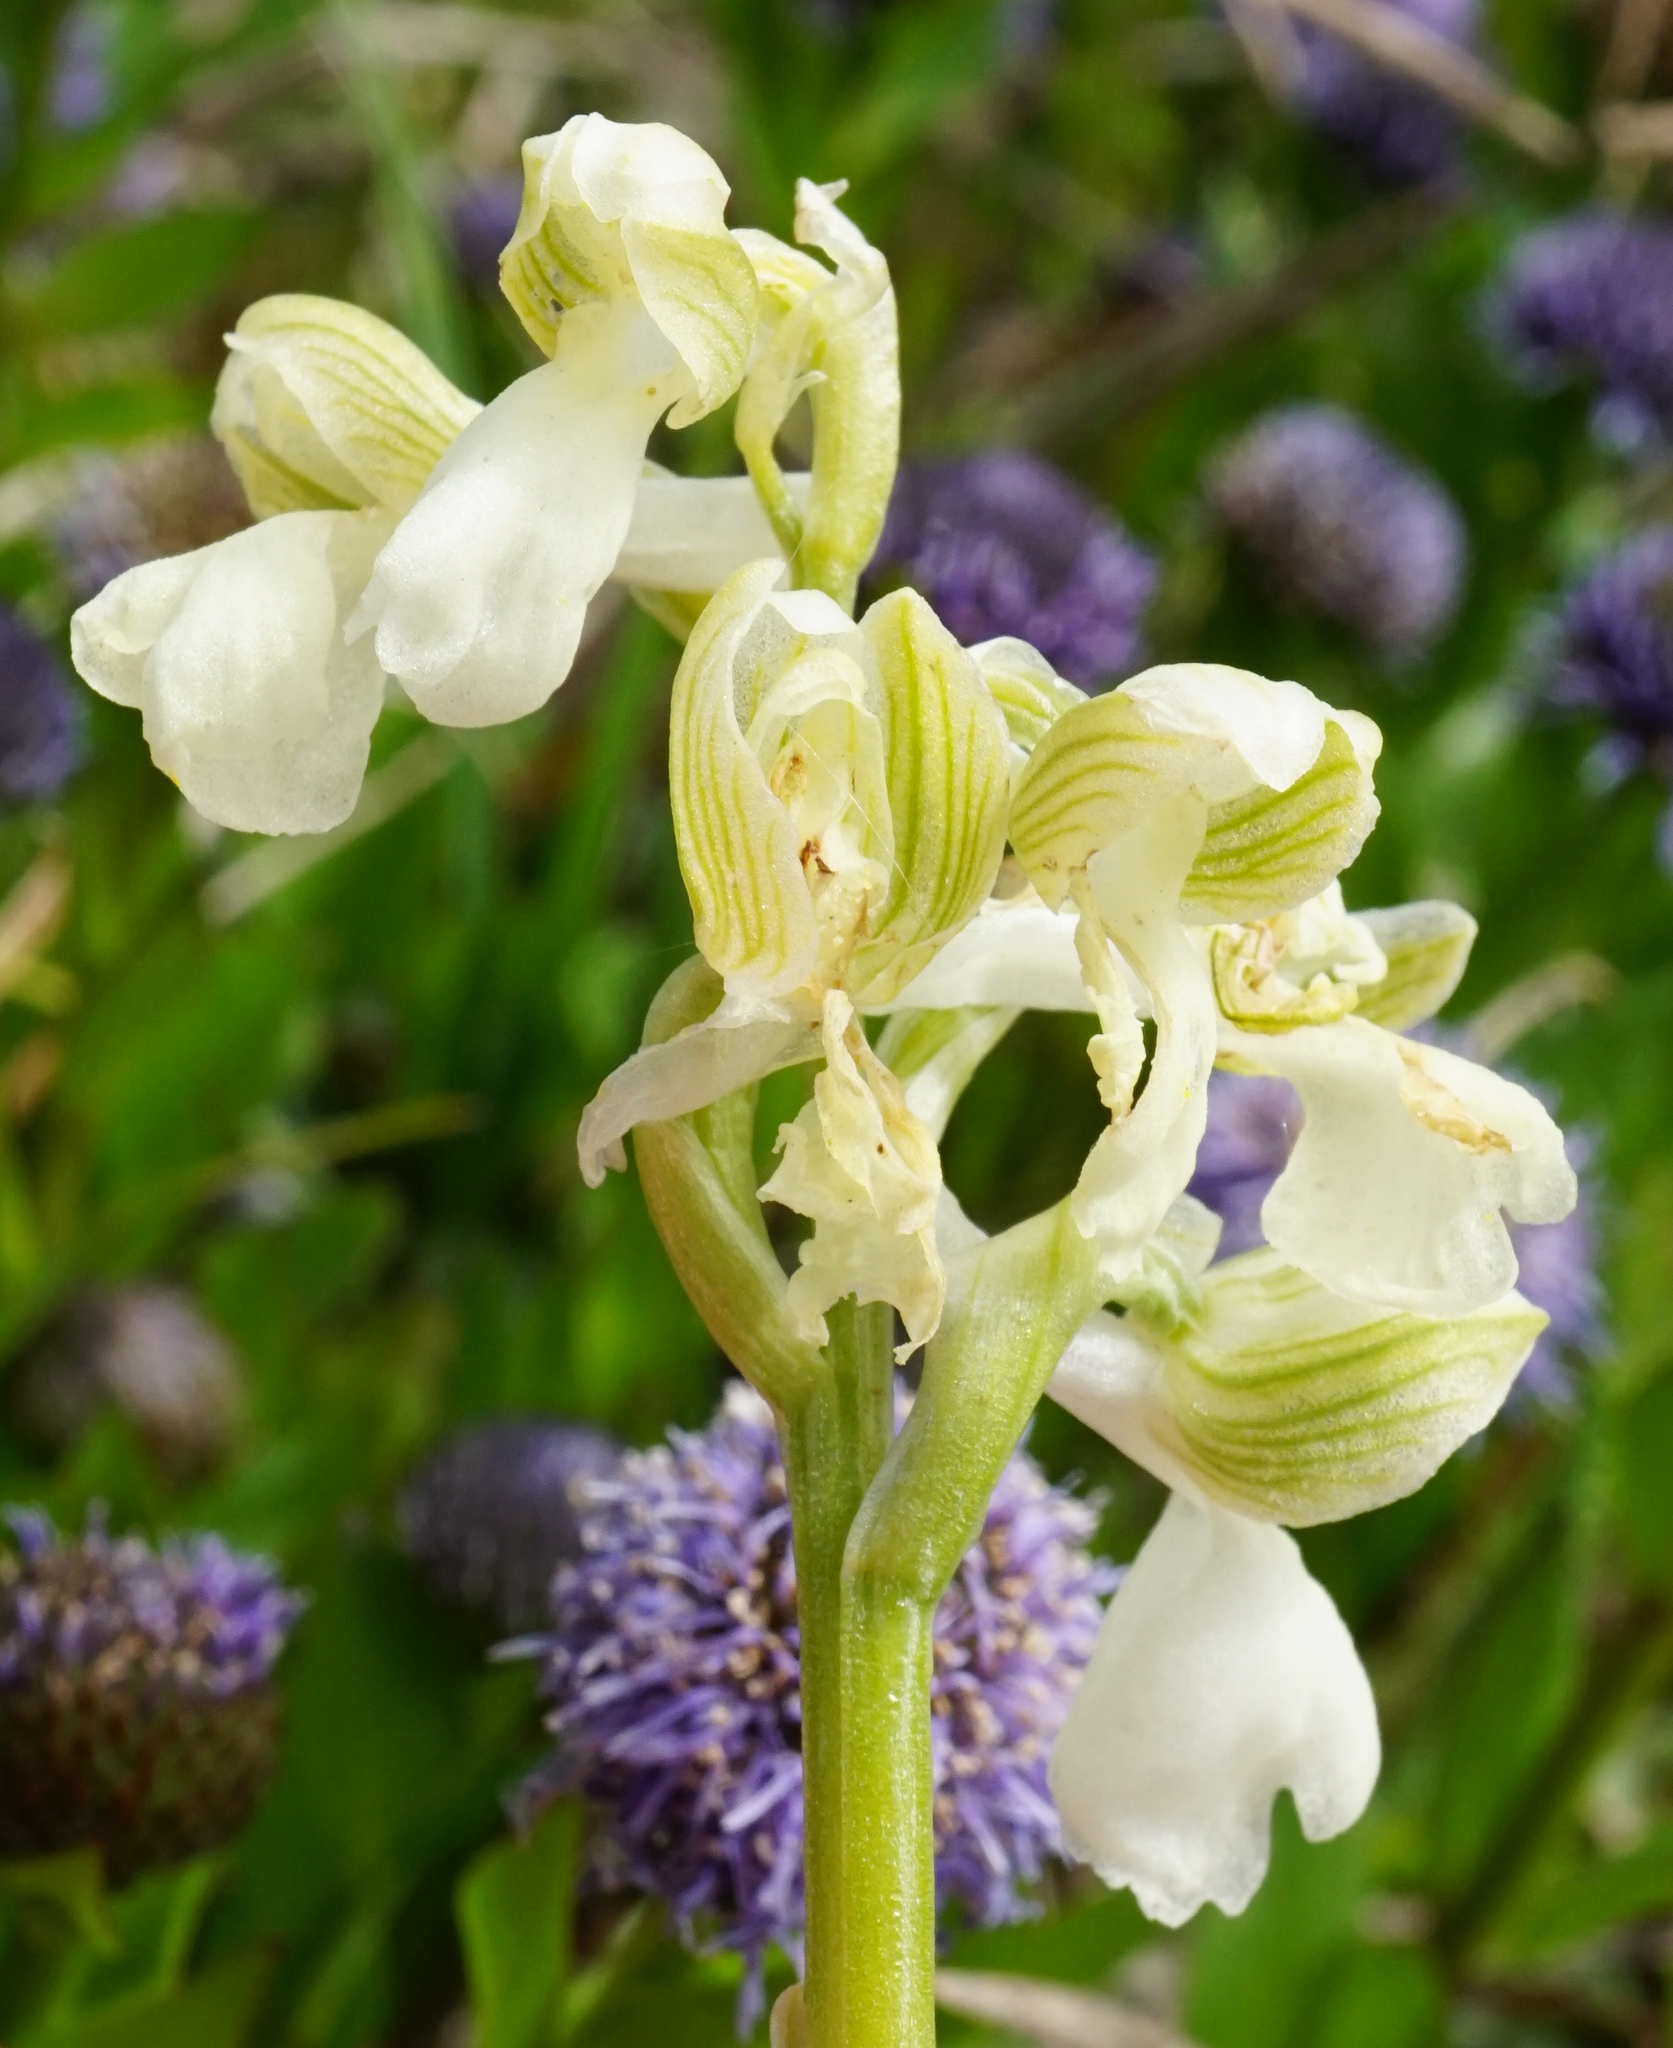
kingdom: Plantae
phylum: Tracheophyta
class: Liliopsida
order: Asparagales
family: Orchidaceae
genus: Anacamptis
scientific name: Anacamptis morio
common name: Green-winged orchid
